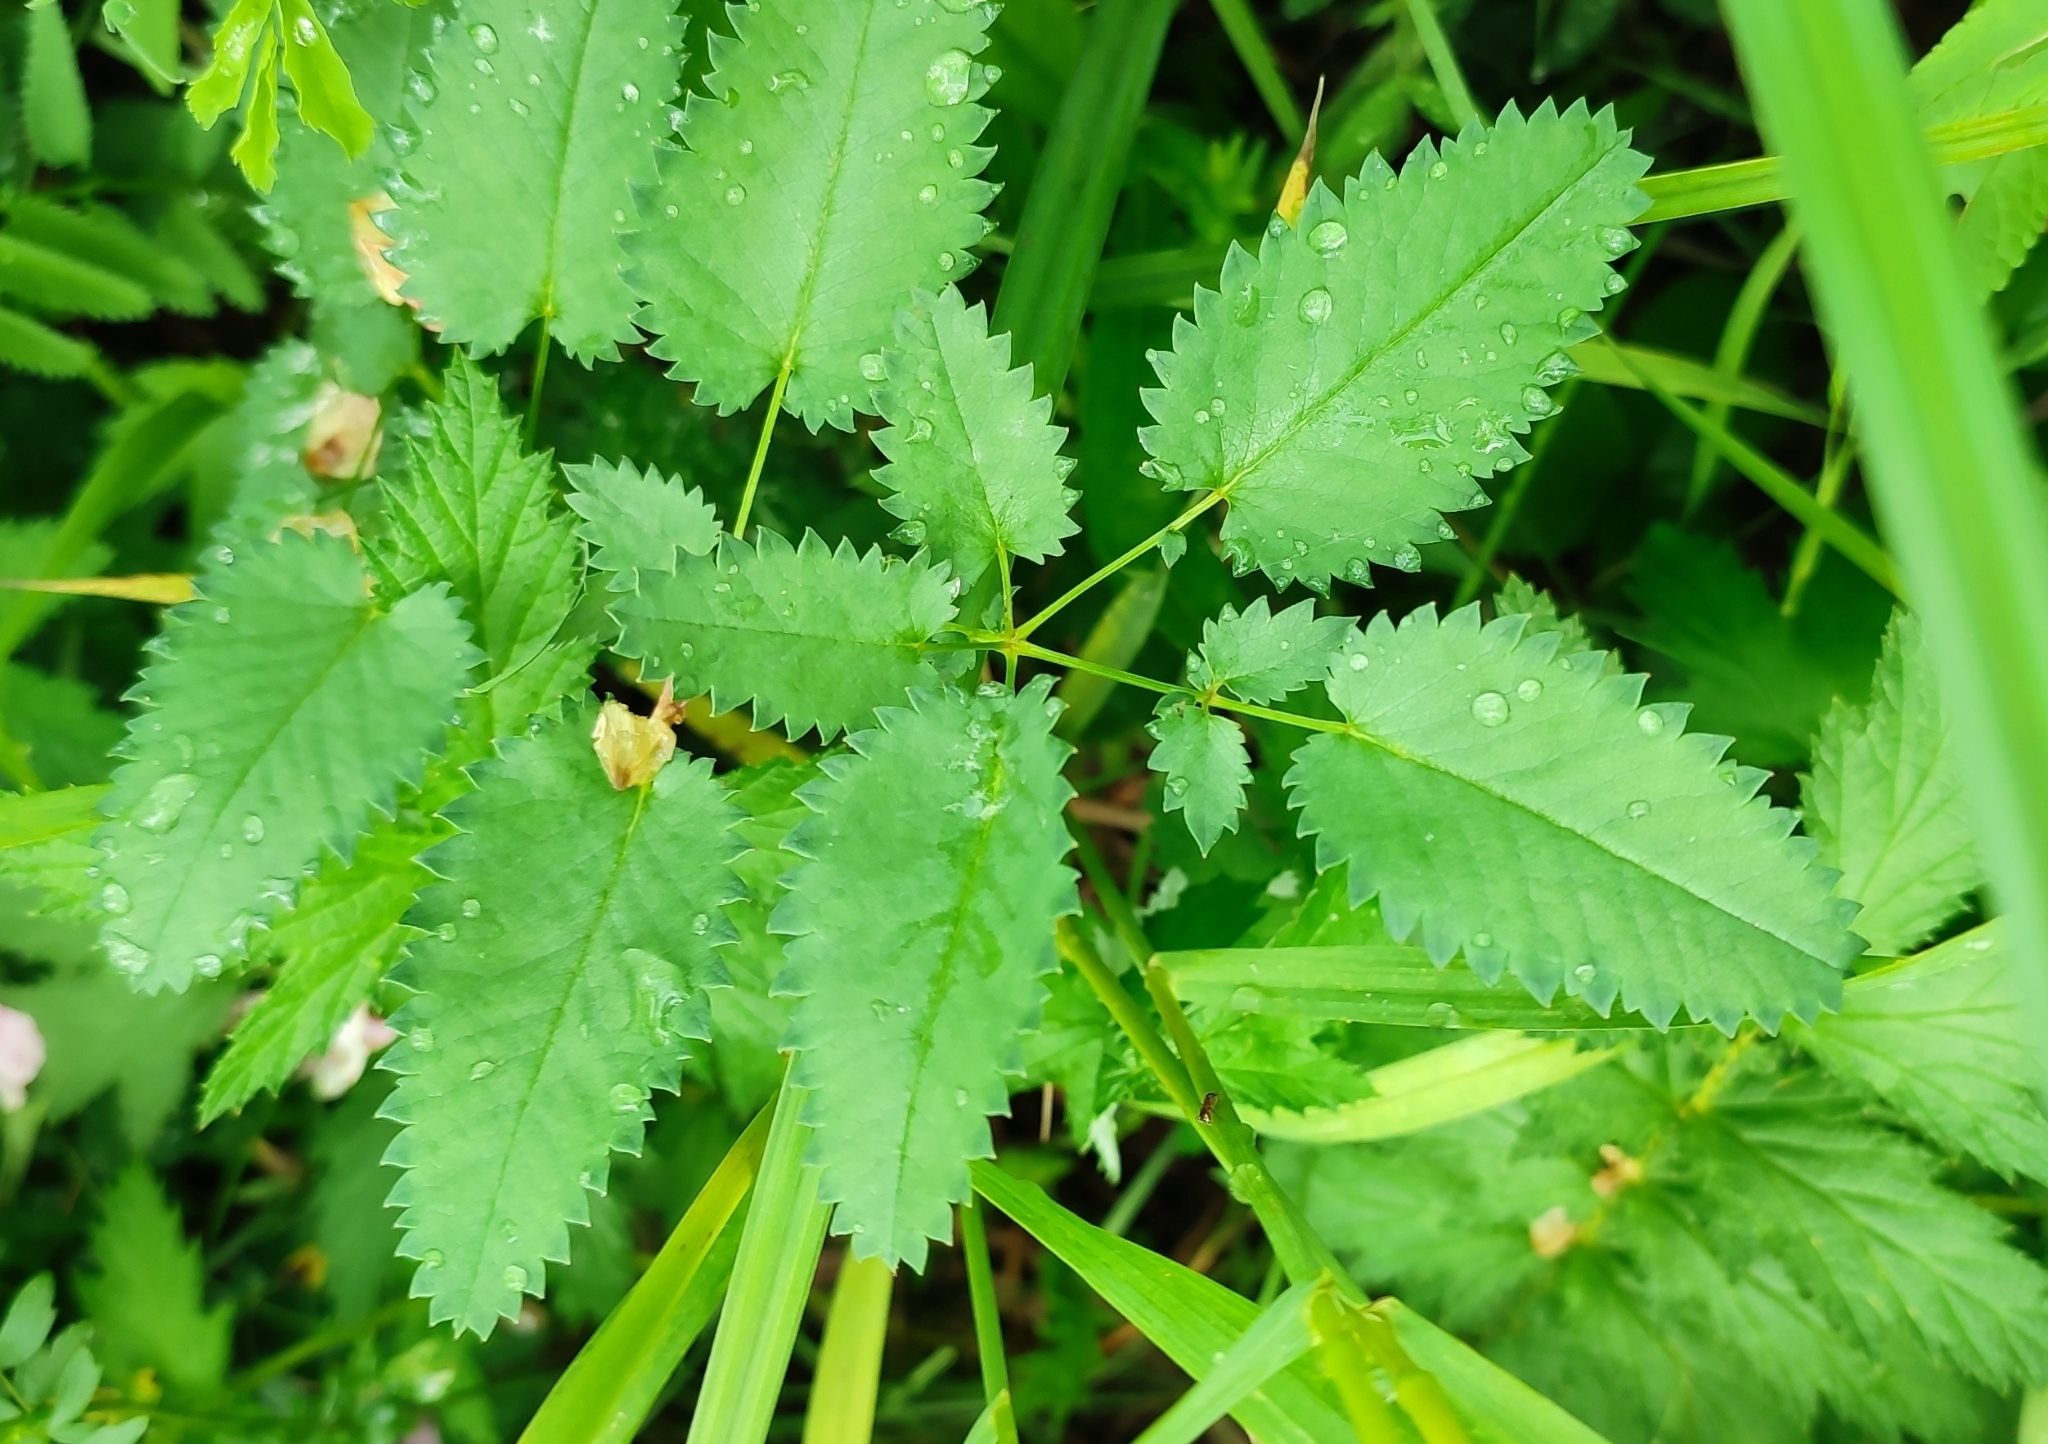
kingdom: Plantae
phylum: Tracheophyta
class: Magnoliopsida
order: Rosales
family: Rosaceae
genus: Sanguisorba
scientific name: Sanguisorba officinalis
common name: Great burnet
